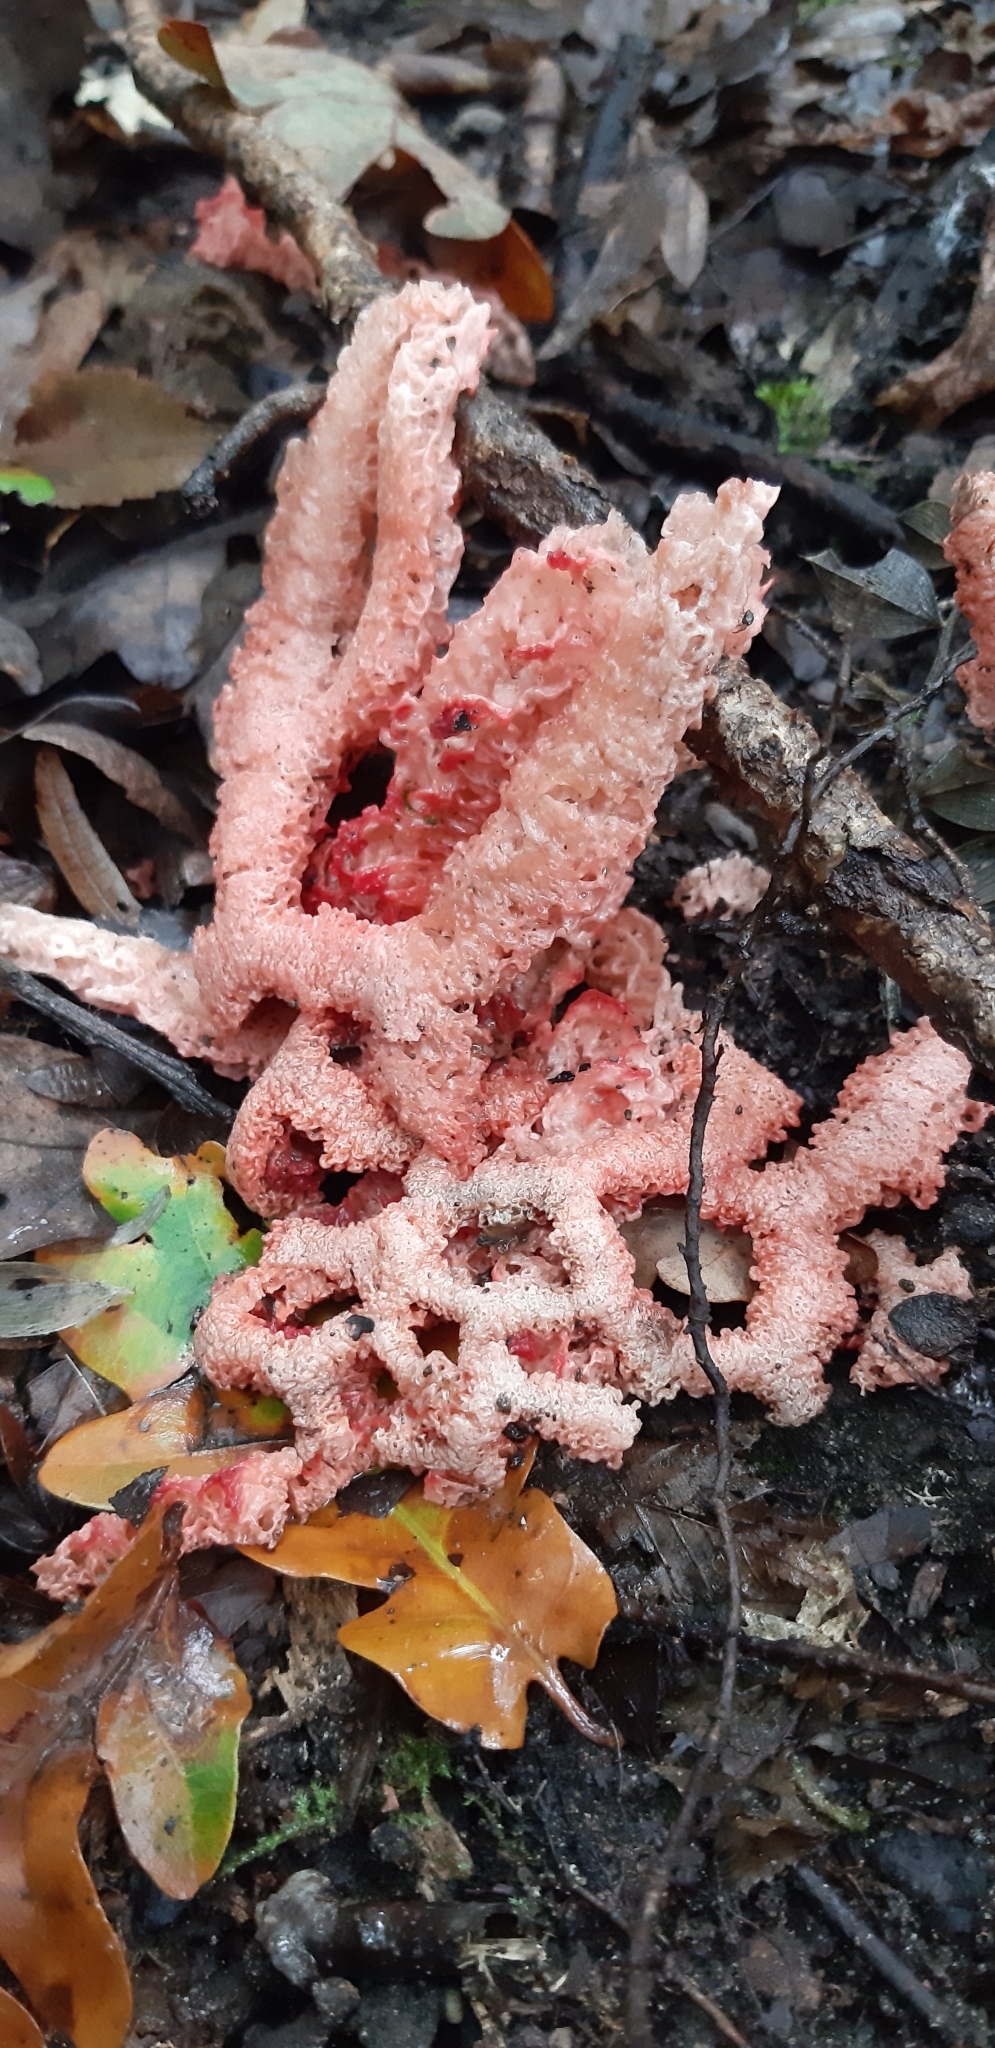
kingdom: Fungi
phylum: Basidiomycota
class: Agaricomycetes
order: Phallales
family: Phallaceae
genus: Clathrus
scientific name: Clathrus ruber
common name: Red cage
